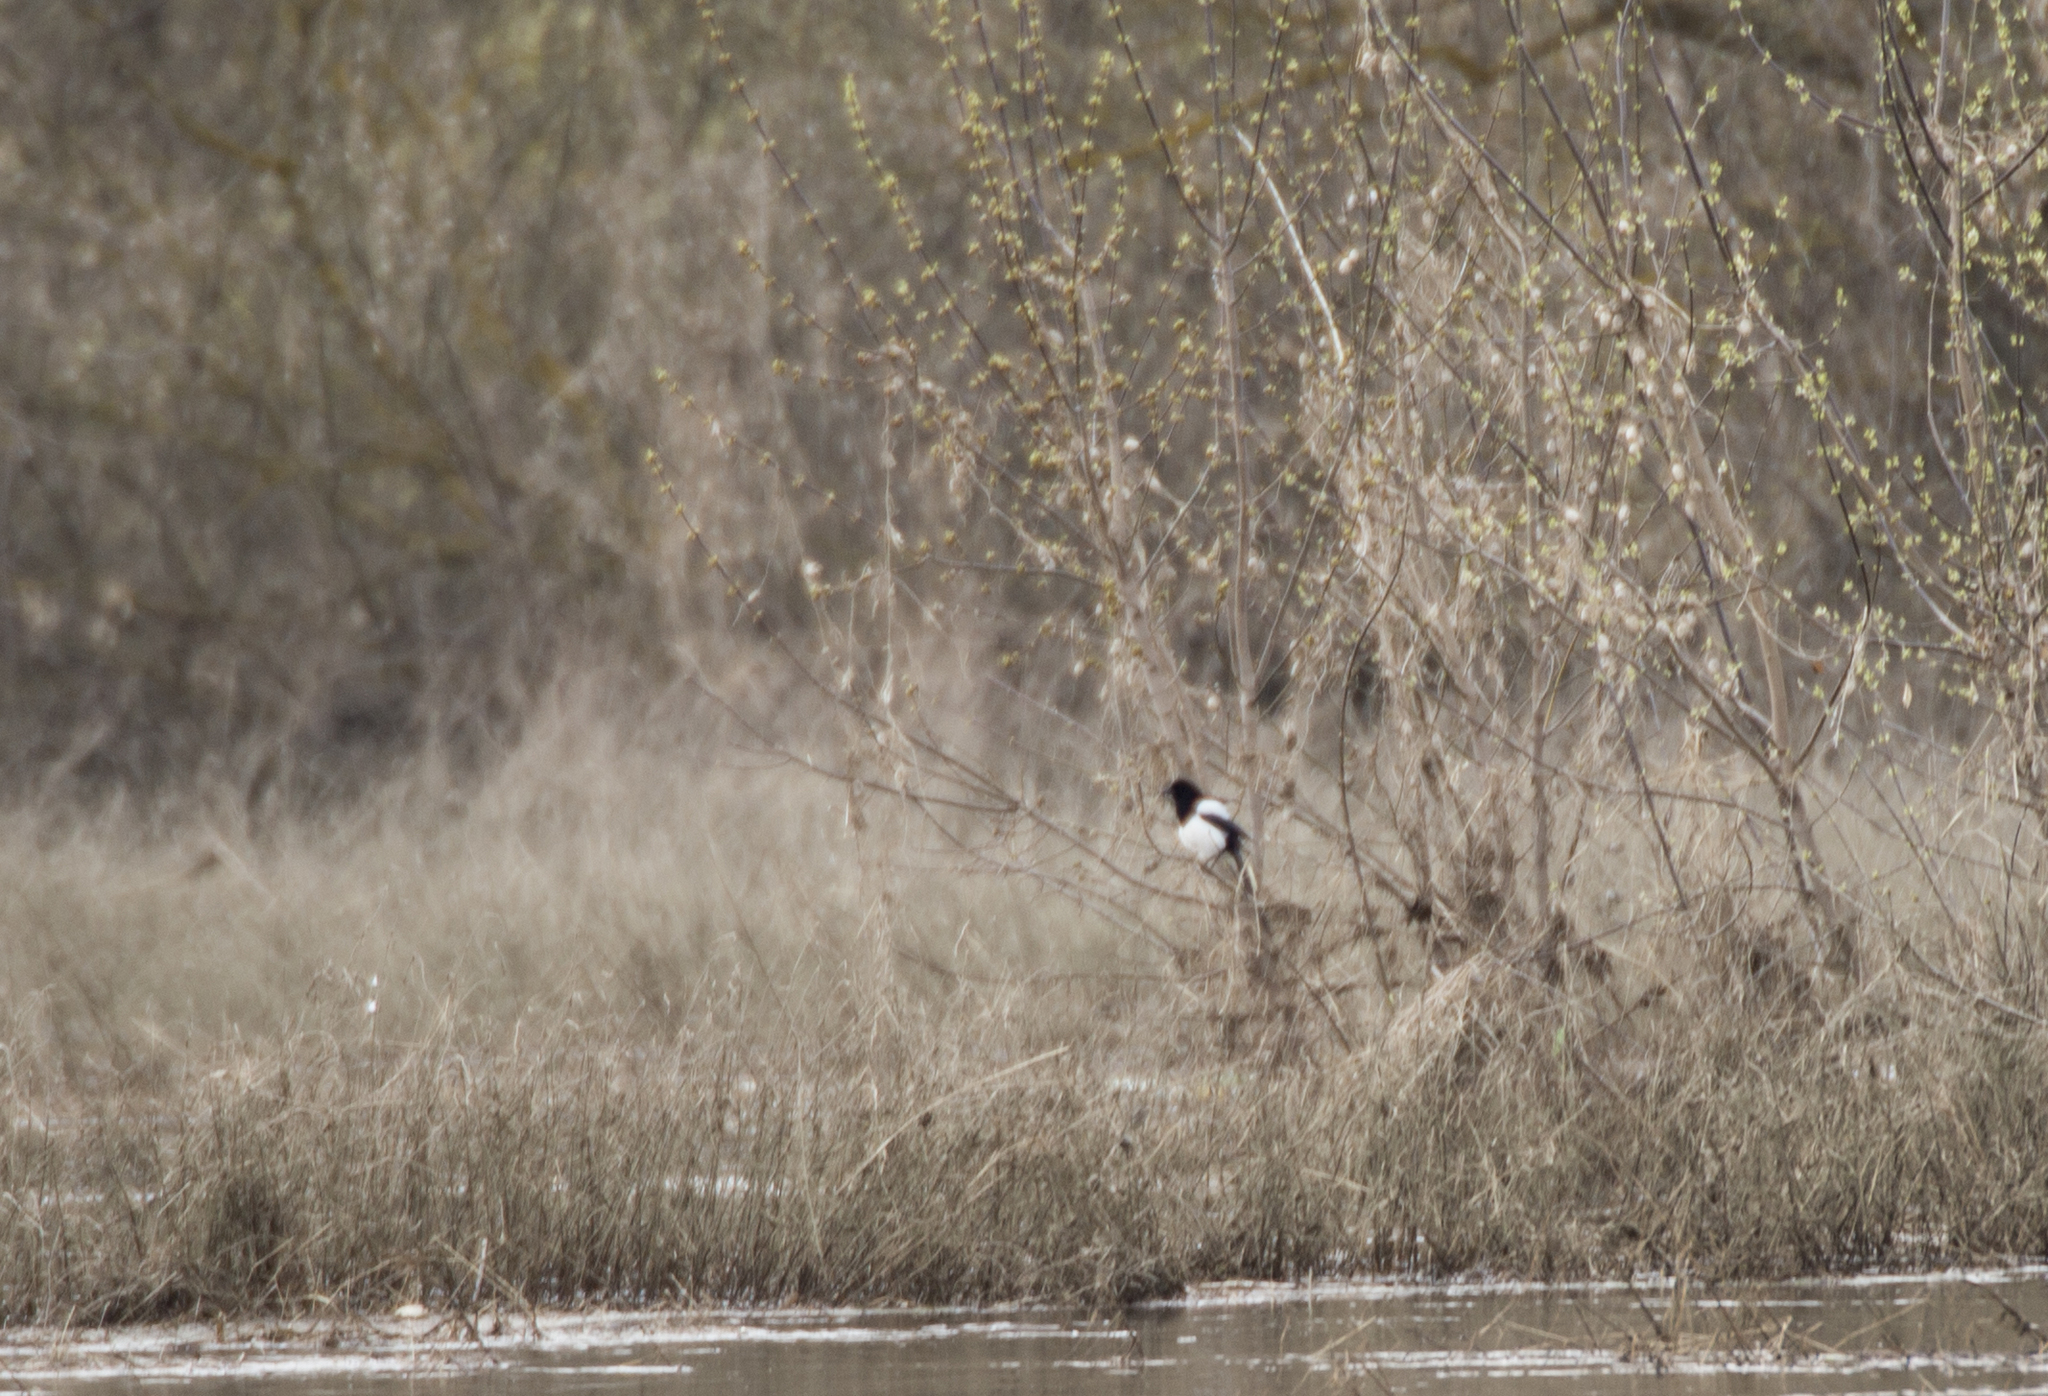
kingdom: Animalia
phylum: Chordata
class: Aves
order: Passeriformes
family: Corvidae
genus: Pica
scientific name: Pica pica
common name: Eurasian magpie
